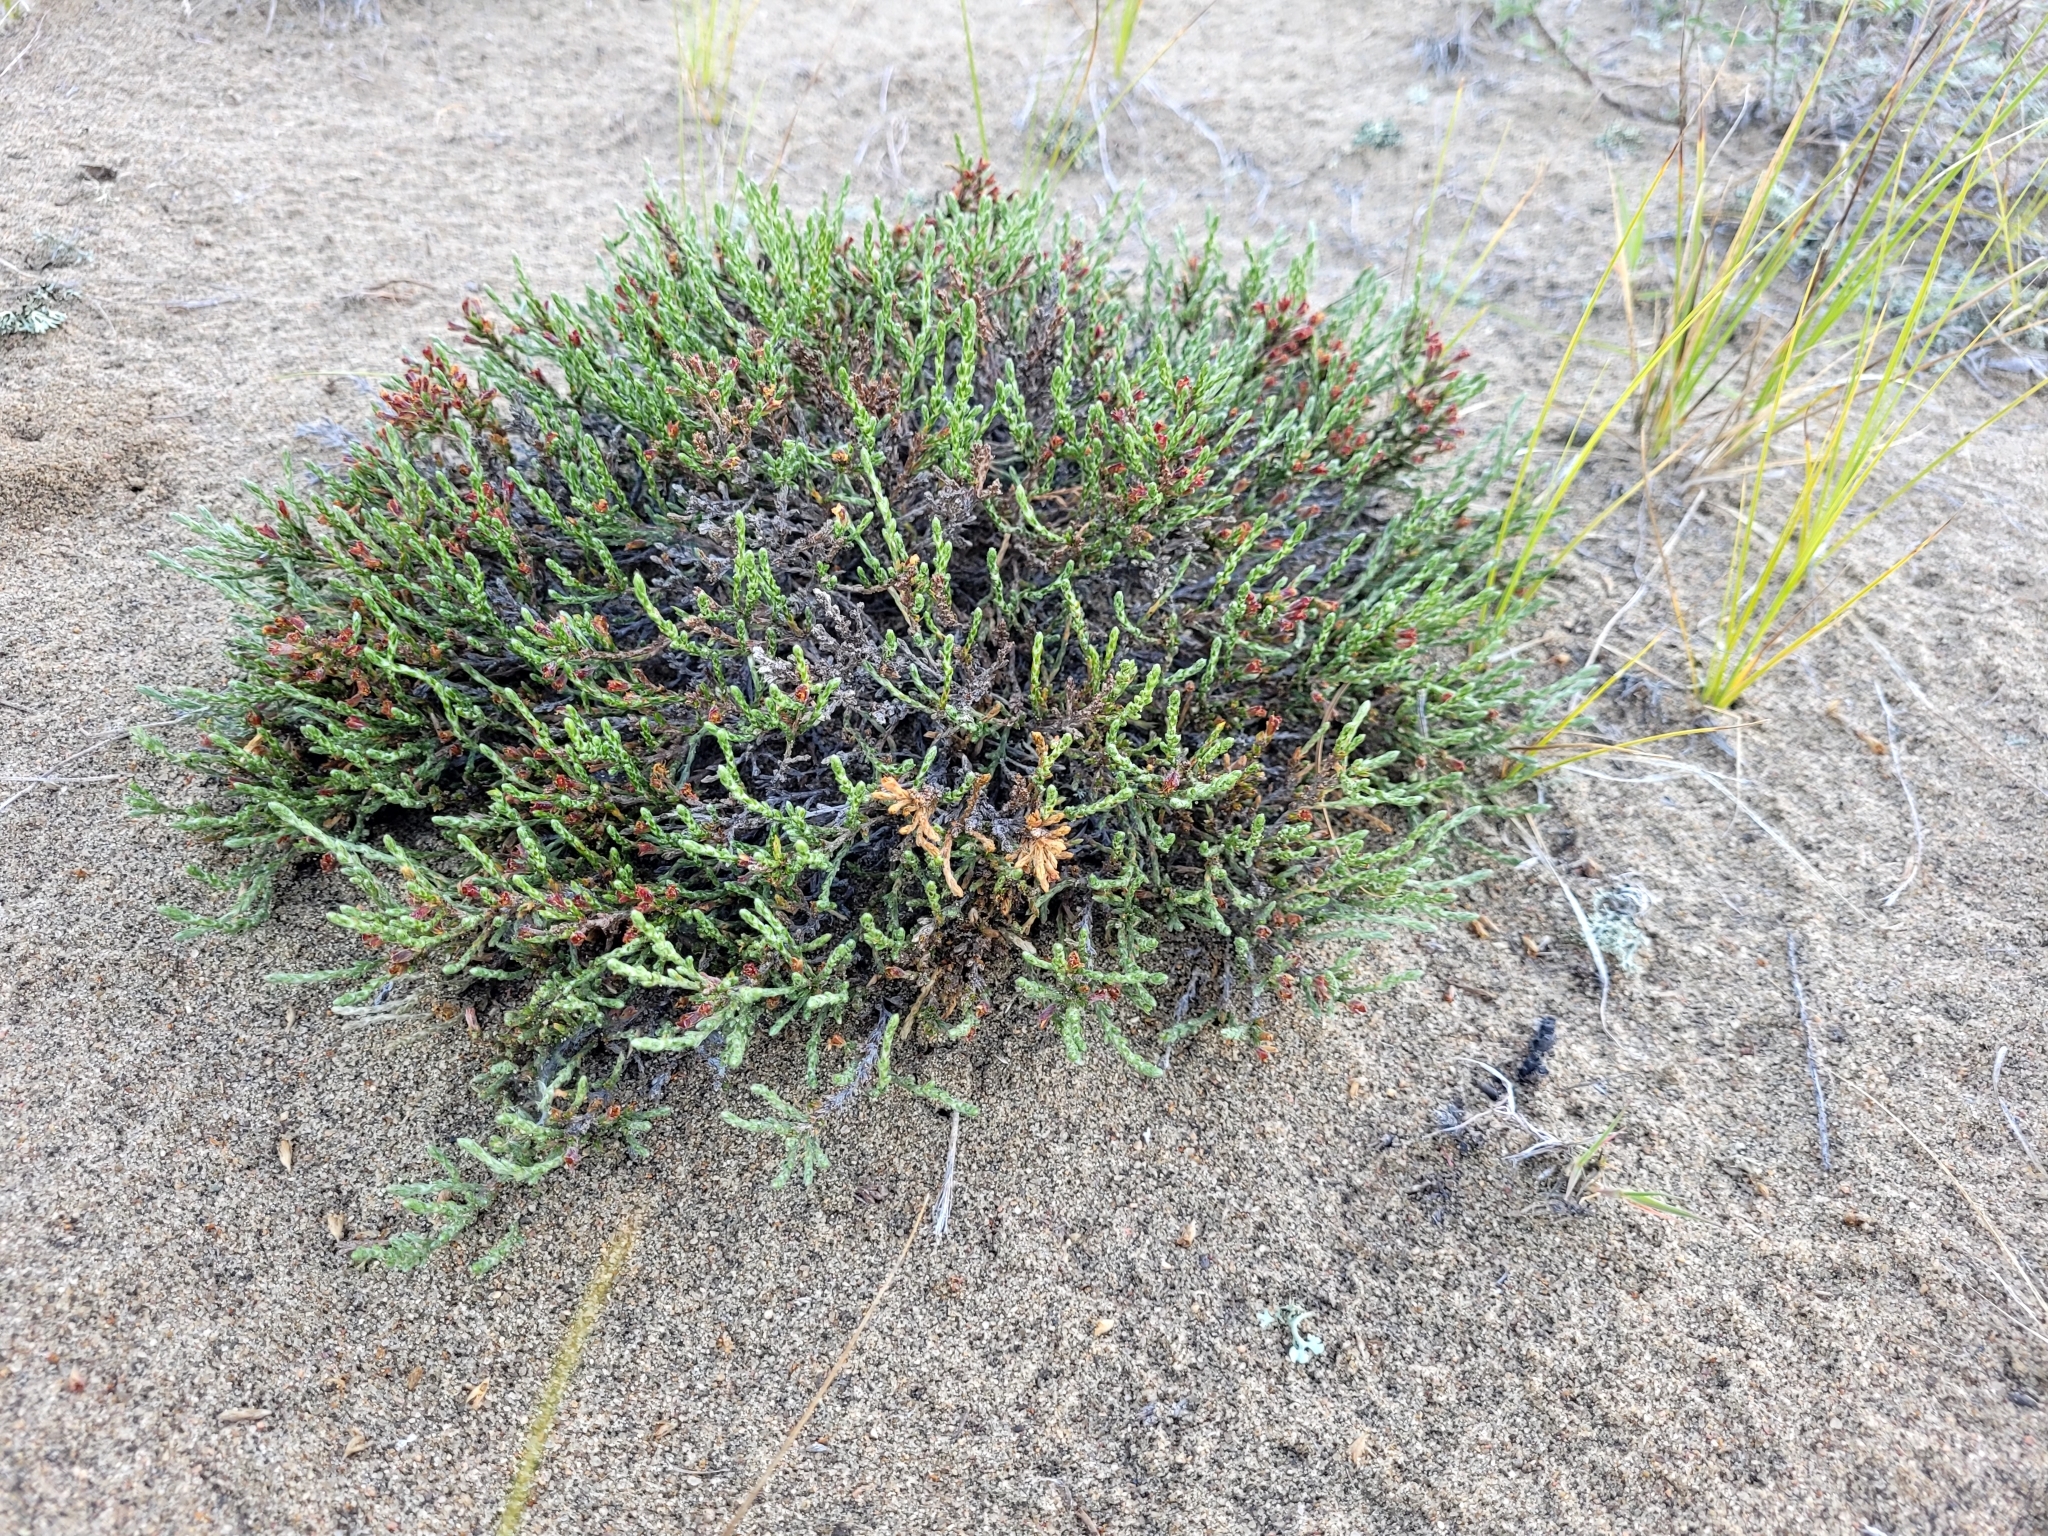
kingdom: Plantae
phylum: Tracheophyta
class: Magnoliopsida
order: Malvales
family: Cistaceae
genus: Hudsonia
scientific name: Hudsonia tomentosa
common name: Beach-heath
